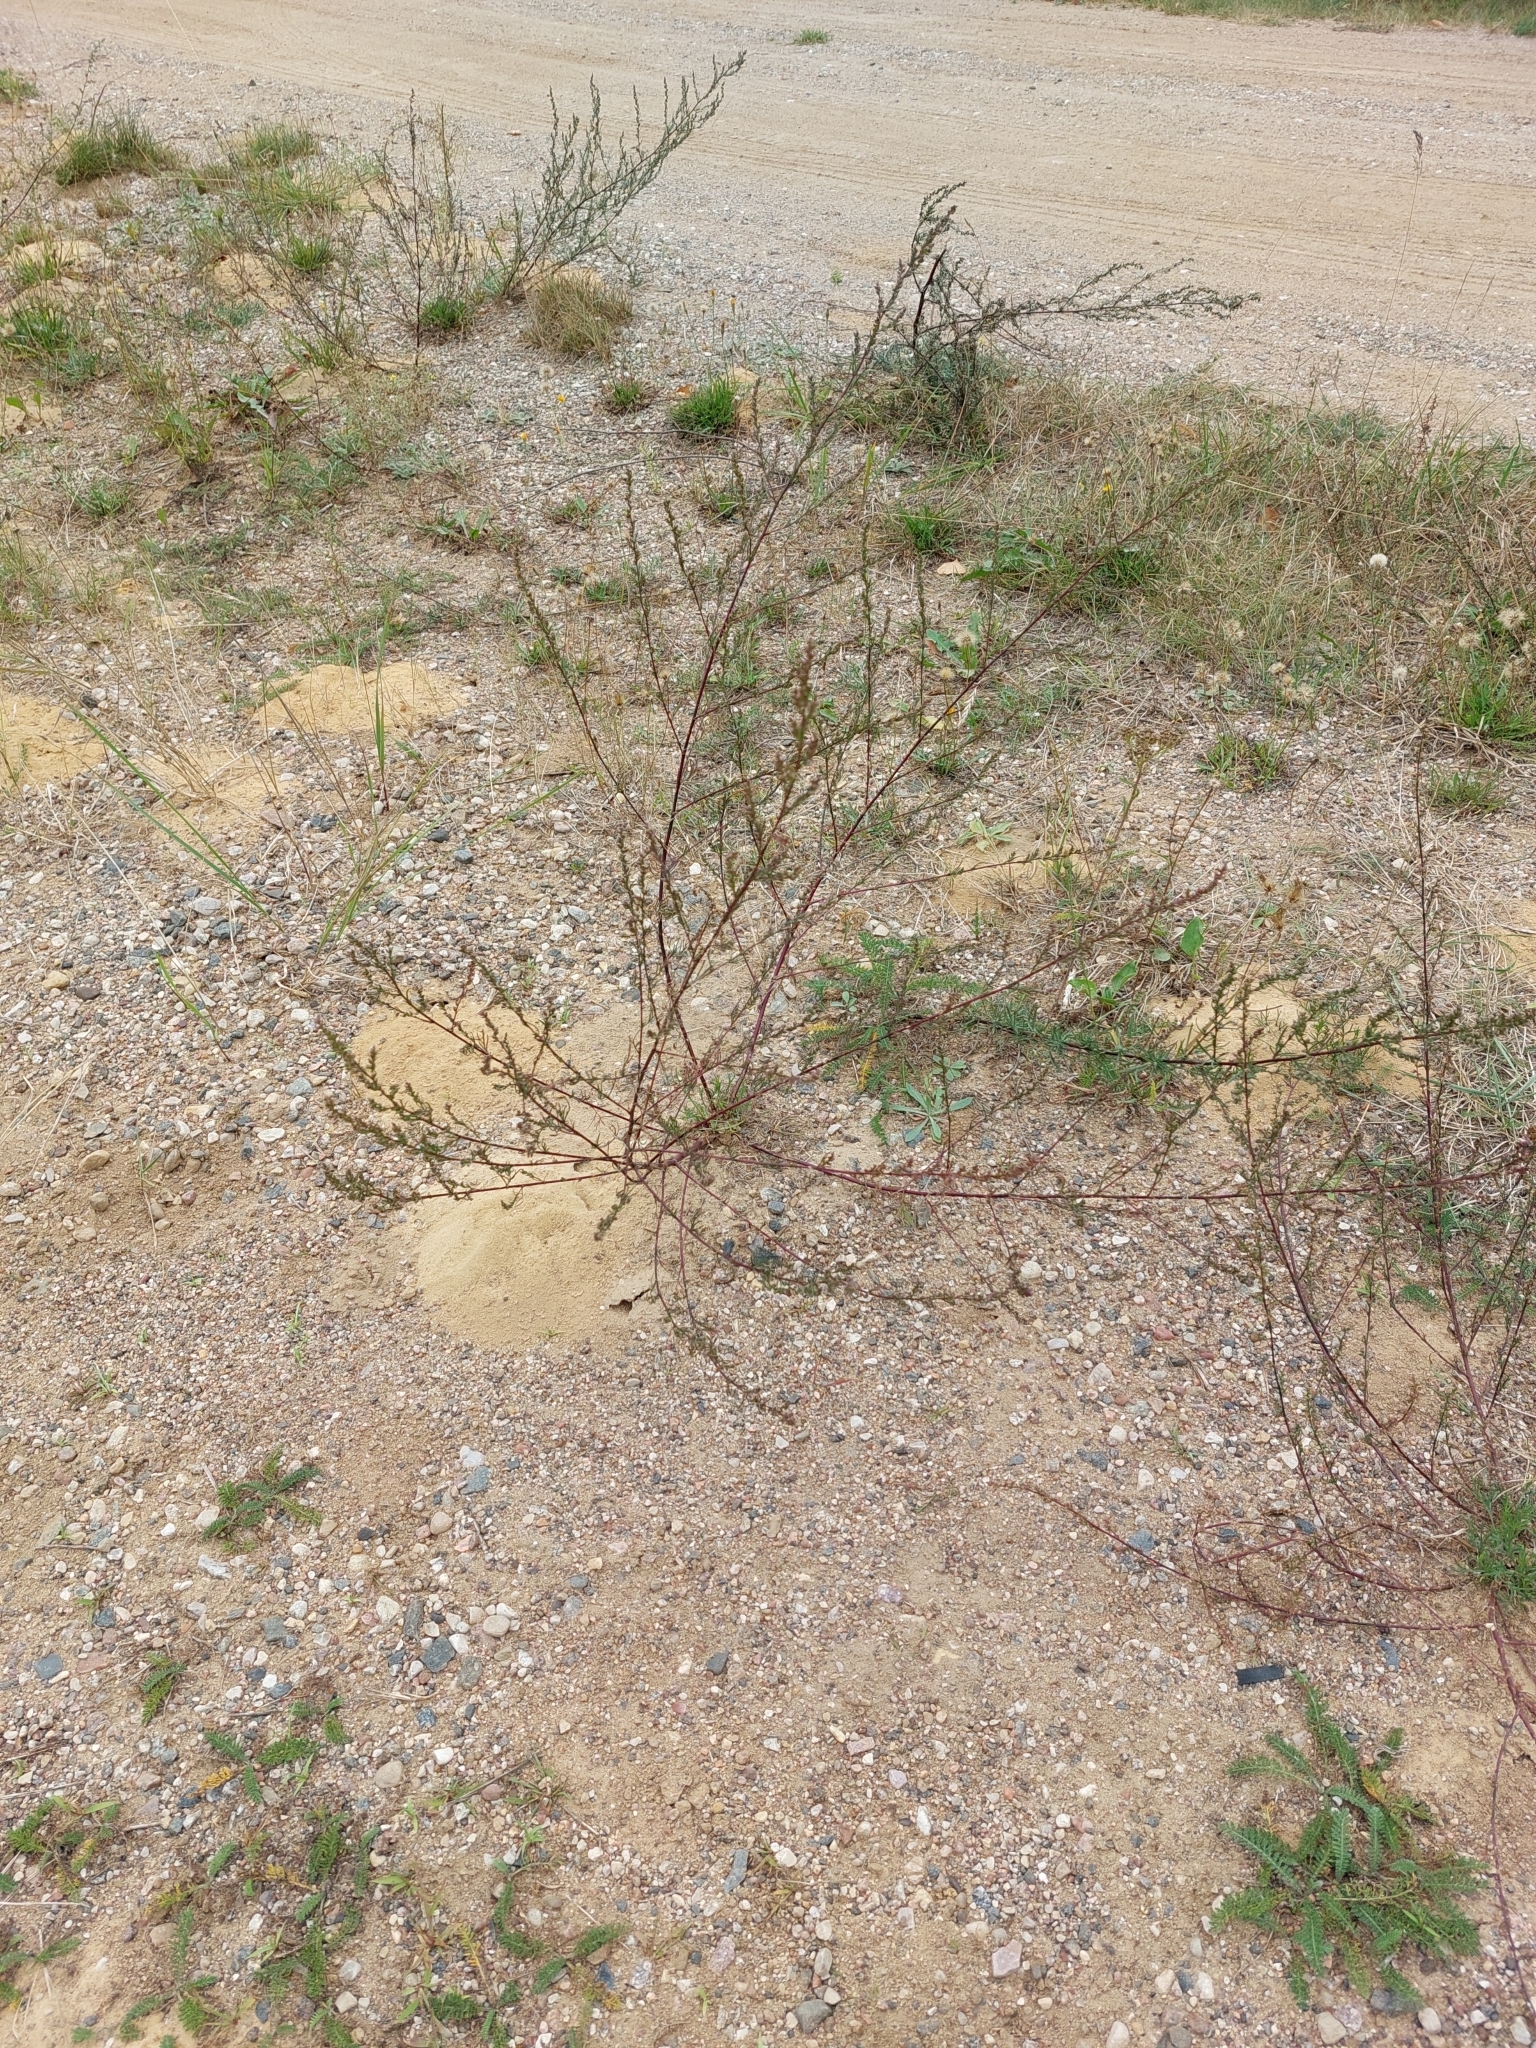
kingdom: Plantae
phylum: Tracheophyta
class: Magnoliopsida
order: Asterales
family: Asteraceae
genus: Artemisia
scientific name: Artemisia campestris
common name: Field wormwood
